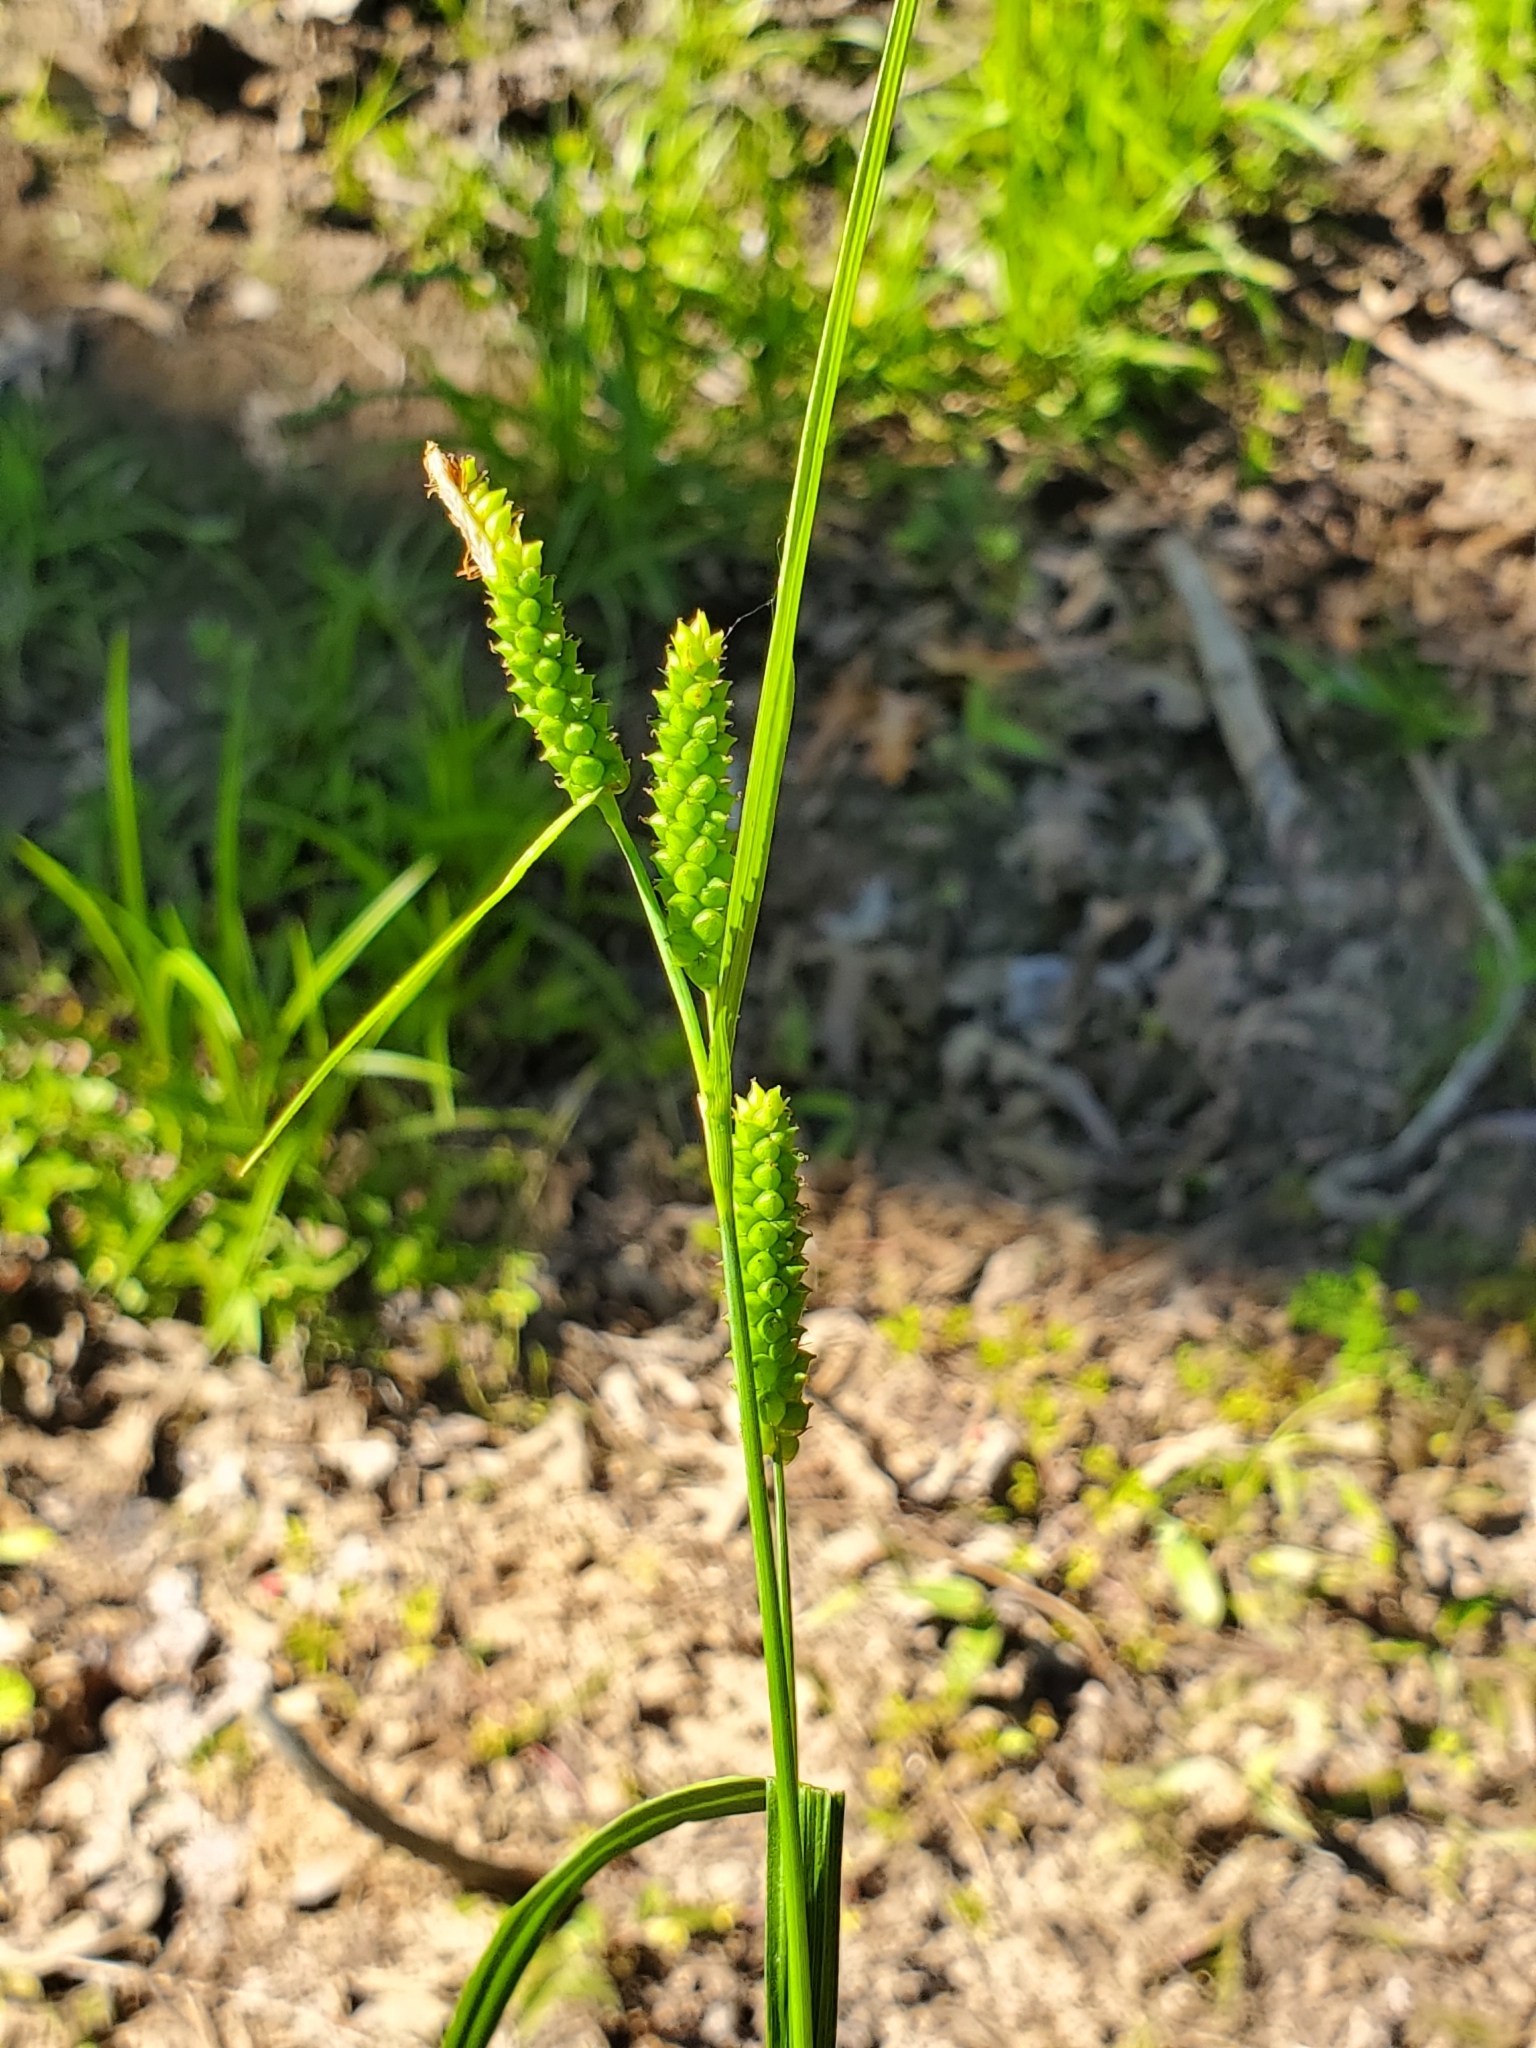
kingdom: Plantae
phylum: Tracheophyta
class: Liliopsida
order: Poales
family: Cyperaceae
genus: Carex
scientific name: Carex granularis
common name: Granular sedge
